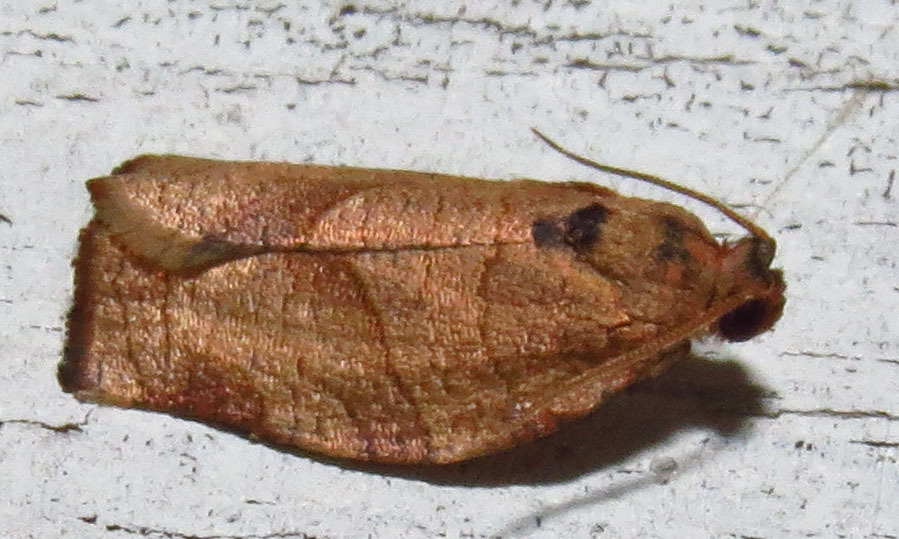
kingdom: Animalia
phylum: Arthropoda
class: Insecta
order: Lepidoptera
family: Tortricidae
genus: Choristoneura
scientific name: Choristoneura rosaceana
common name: Oblique-banded leafroller moth
